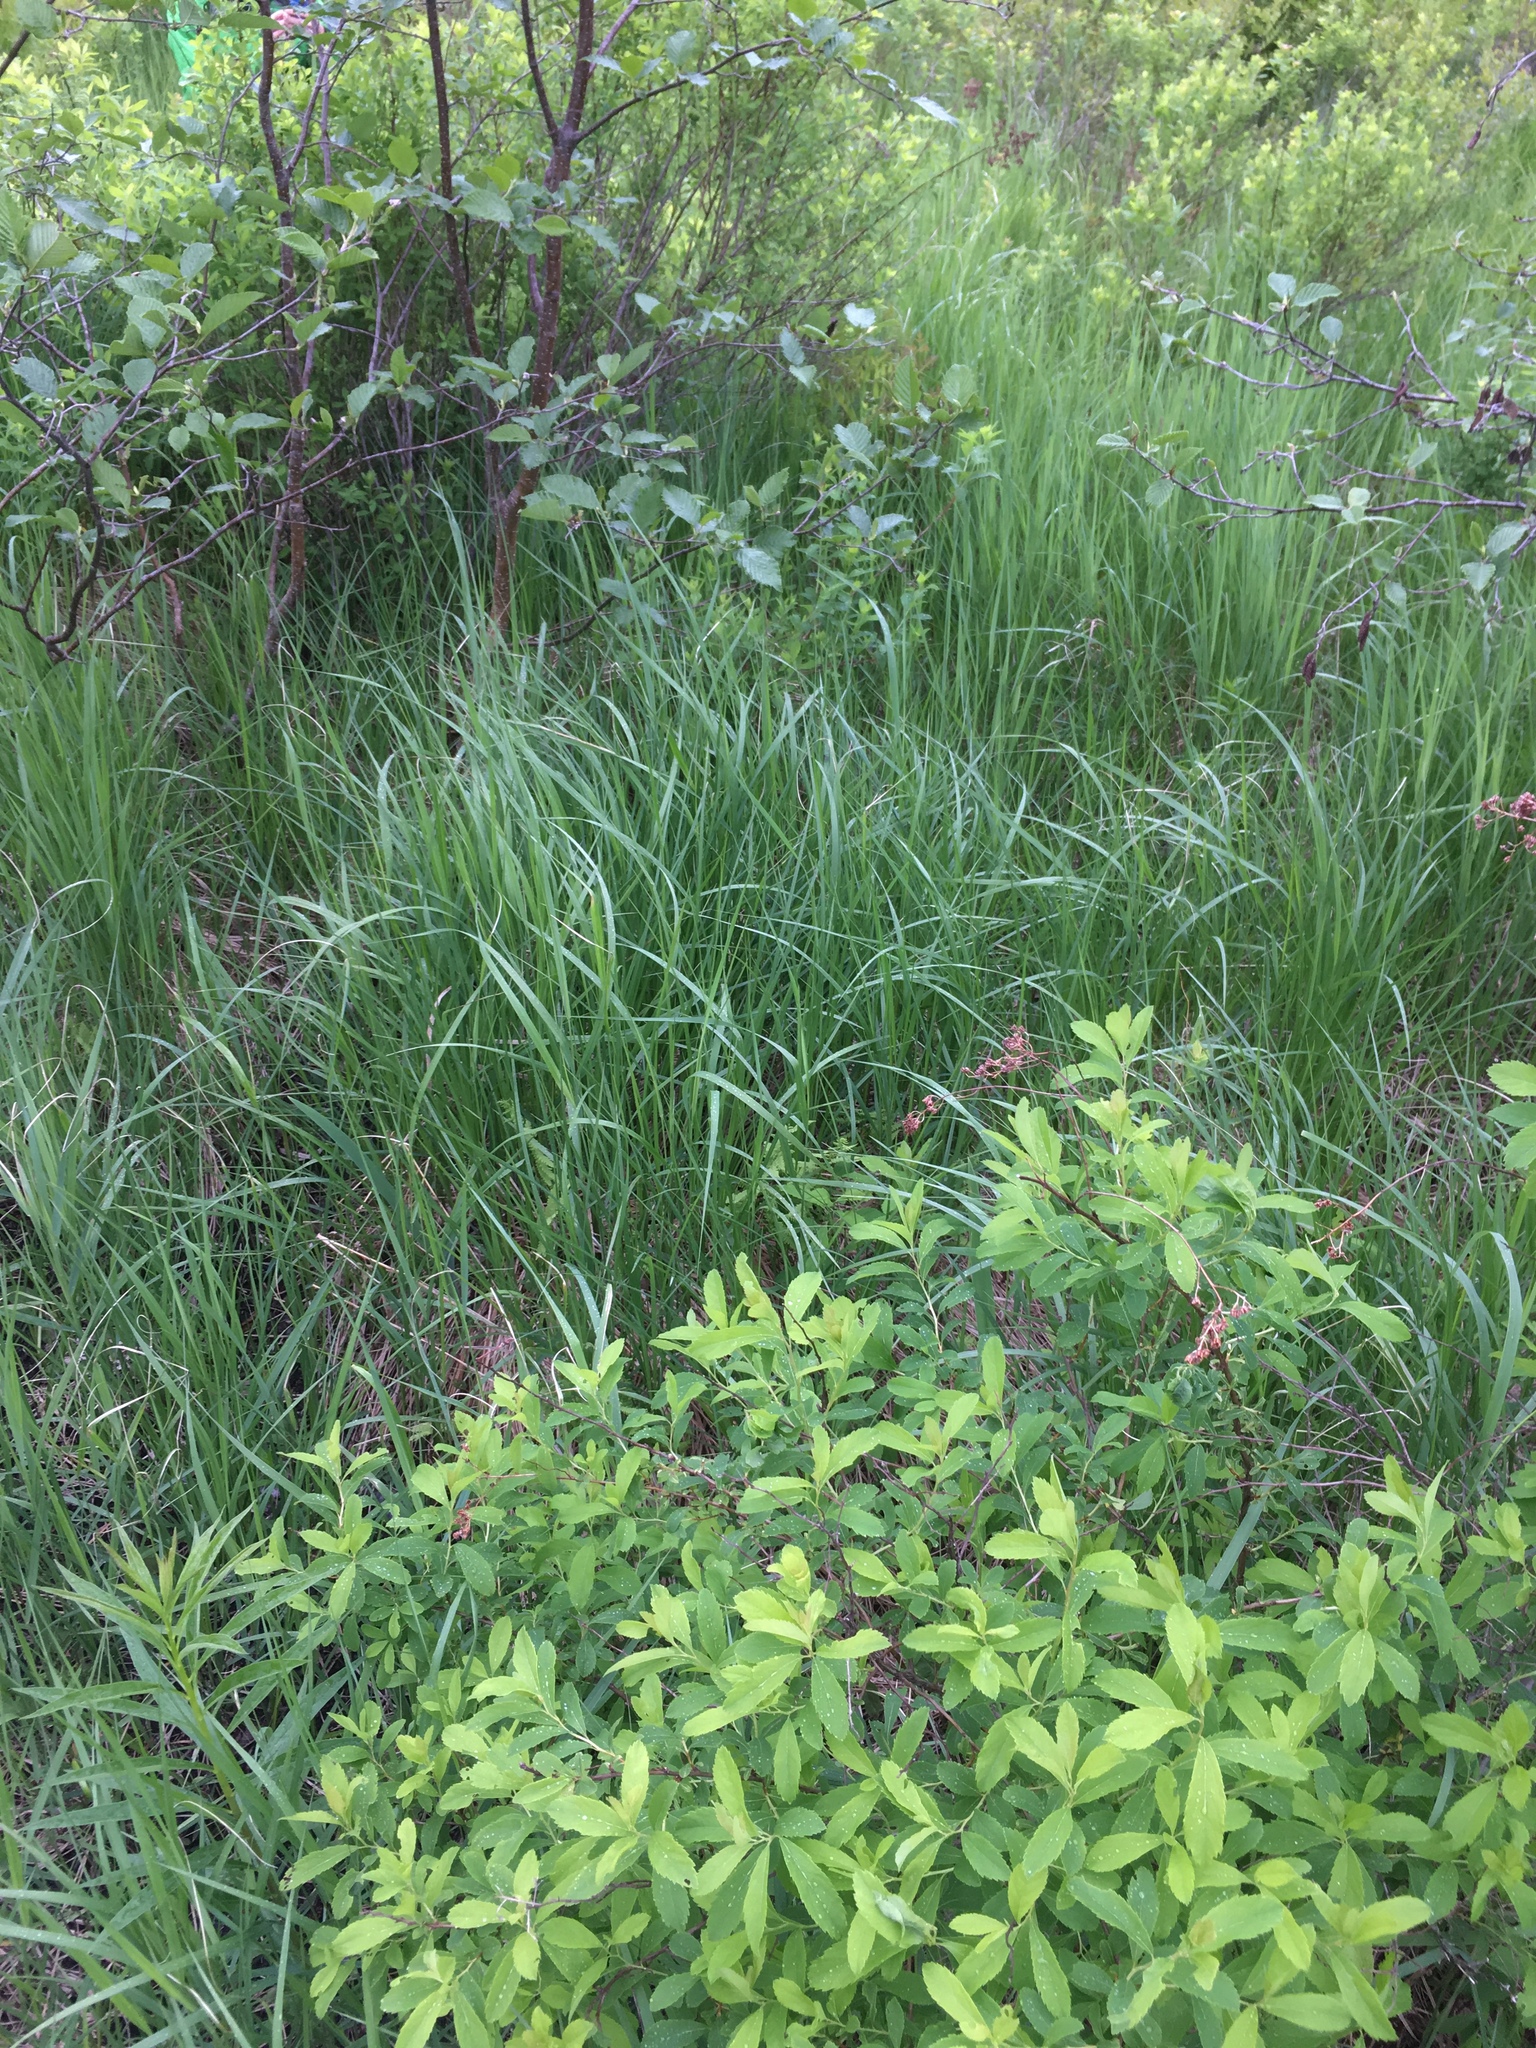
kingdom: Plantae
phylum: Tracheophyta
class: Magnoliopsida
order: Rosales
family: Rosaceae
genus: Spiraea
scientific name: Spiraea alba
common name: Pale bridewort
